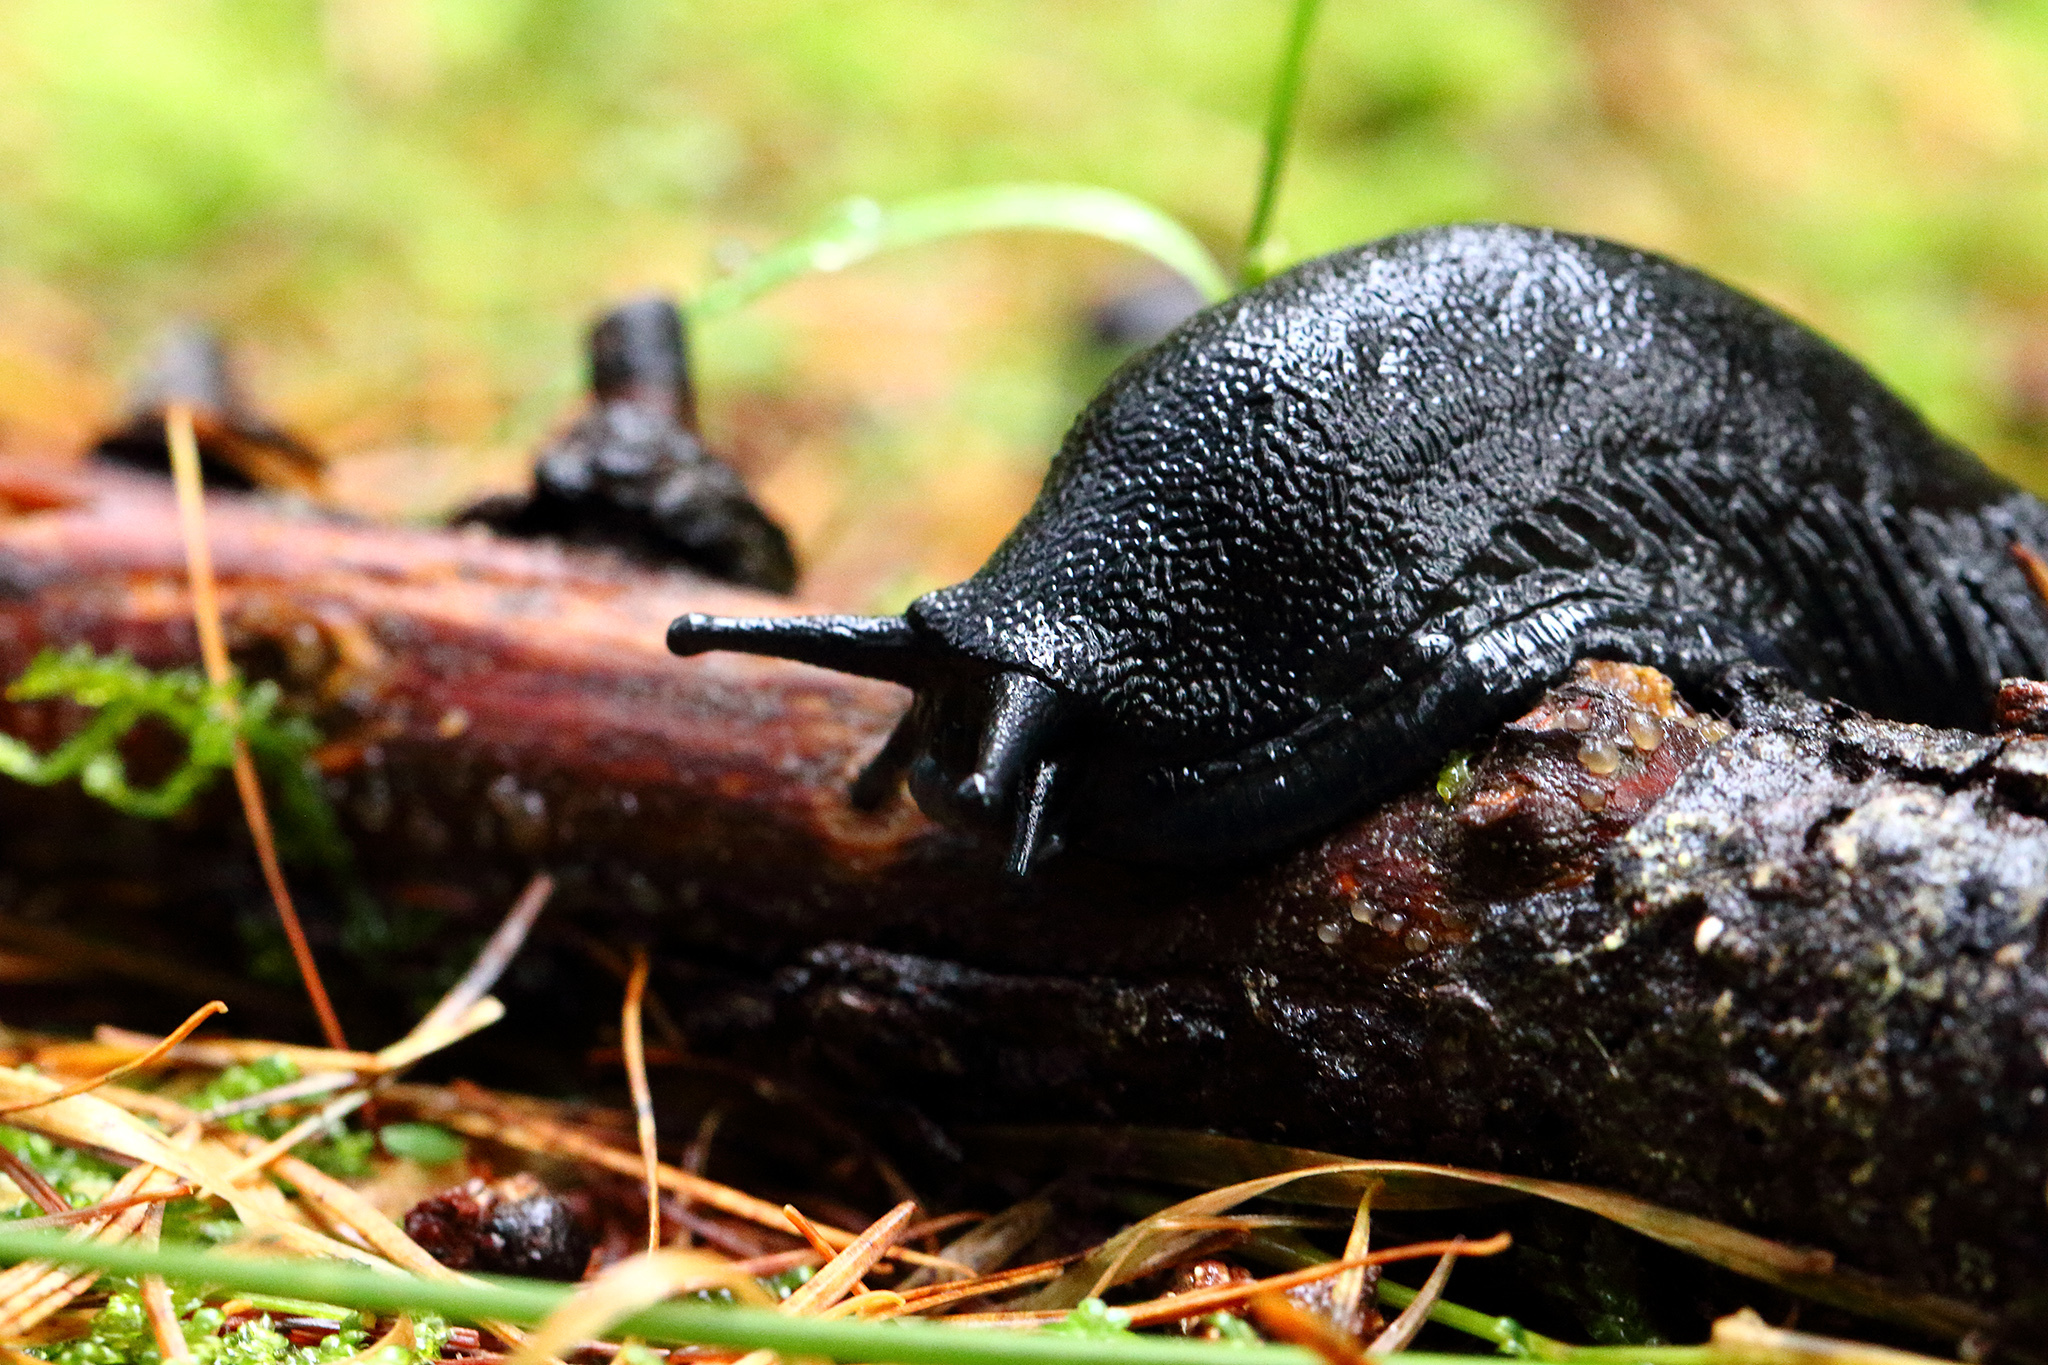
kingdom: Animalia
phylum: Mollusca
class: Gastropoda
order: Stylommatophora
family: Arionidae
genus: Arion
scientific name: Arion ater
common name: Black arion
